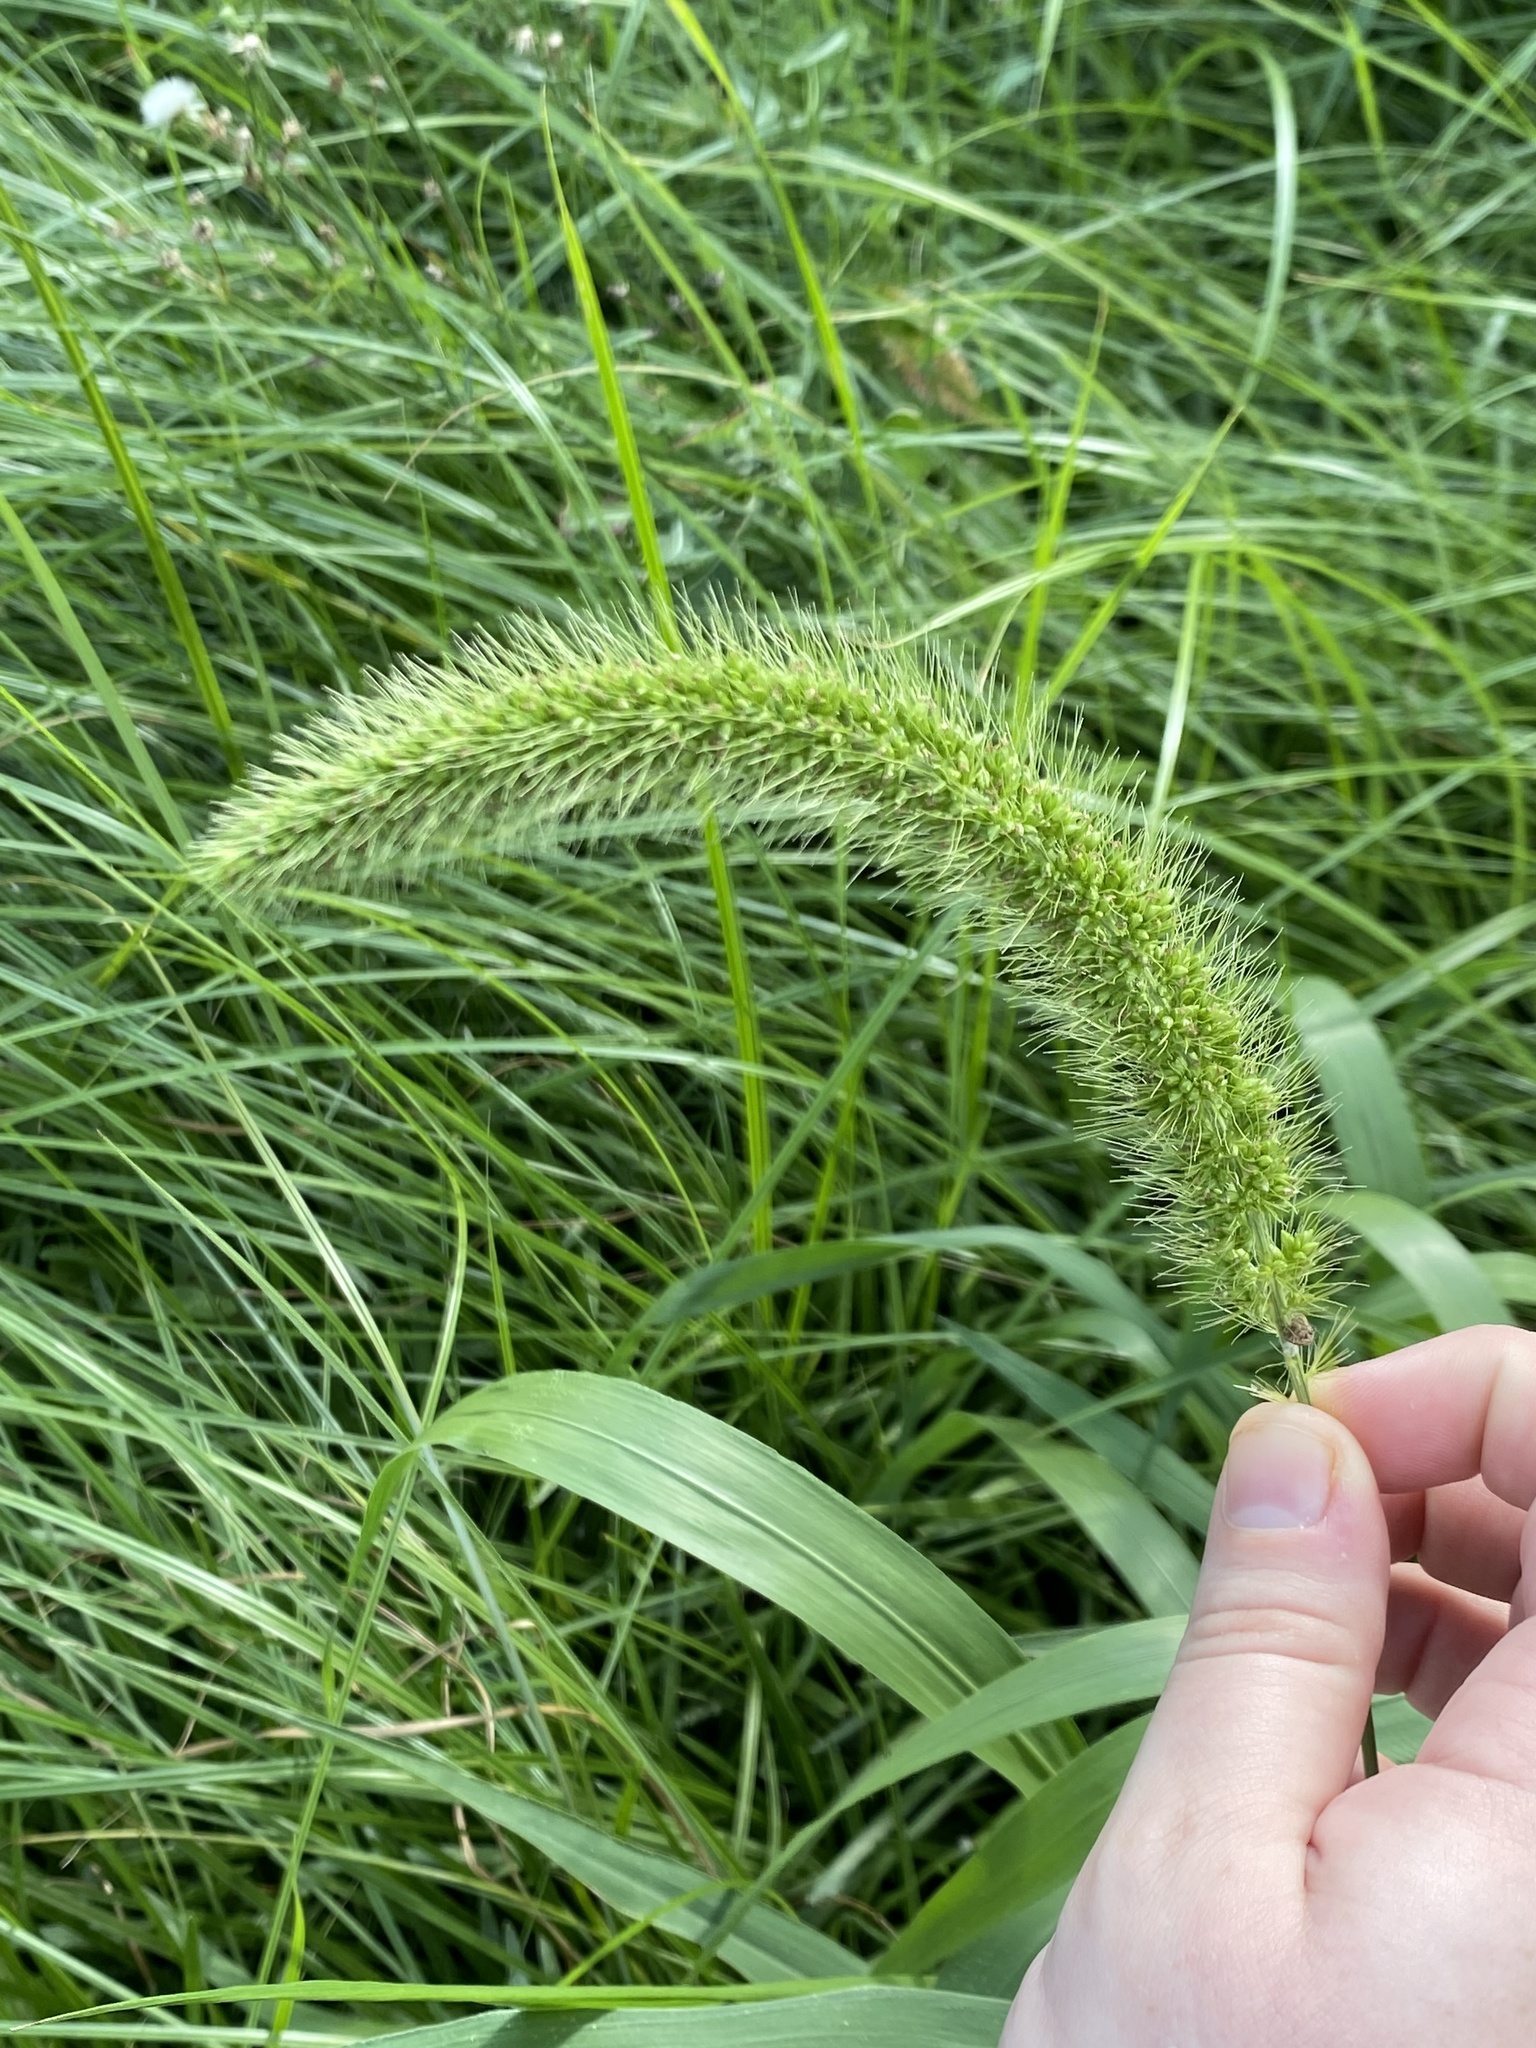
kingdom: Plantae
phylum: Tracheophyta
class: Liliopsida
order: Poales
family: Poaceae
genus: Setaria
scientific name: Setaria faberi
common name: Nodding bristle-grass
